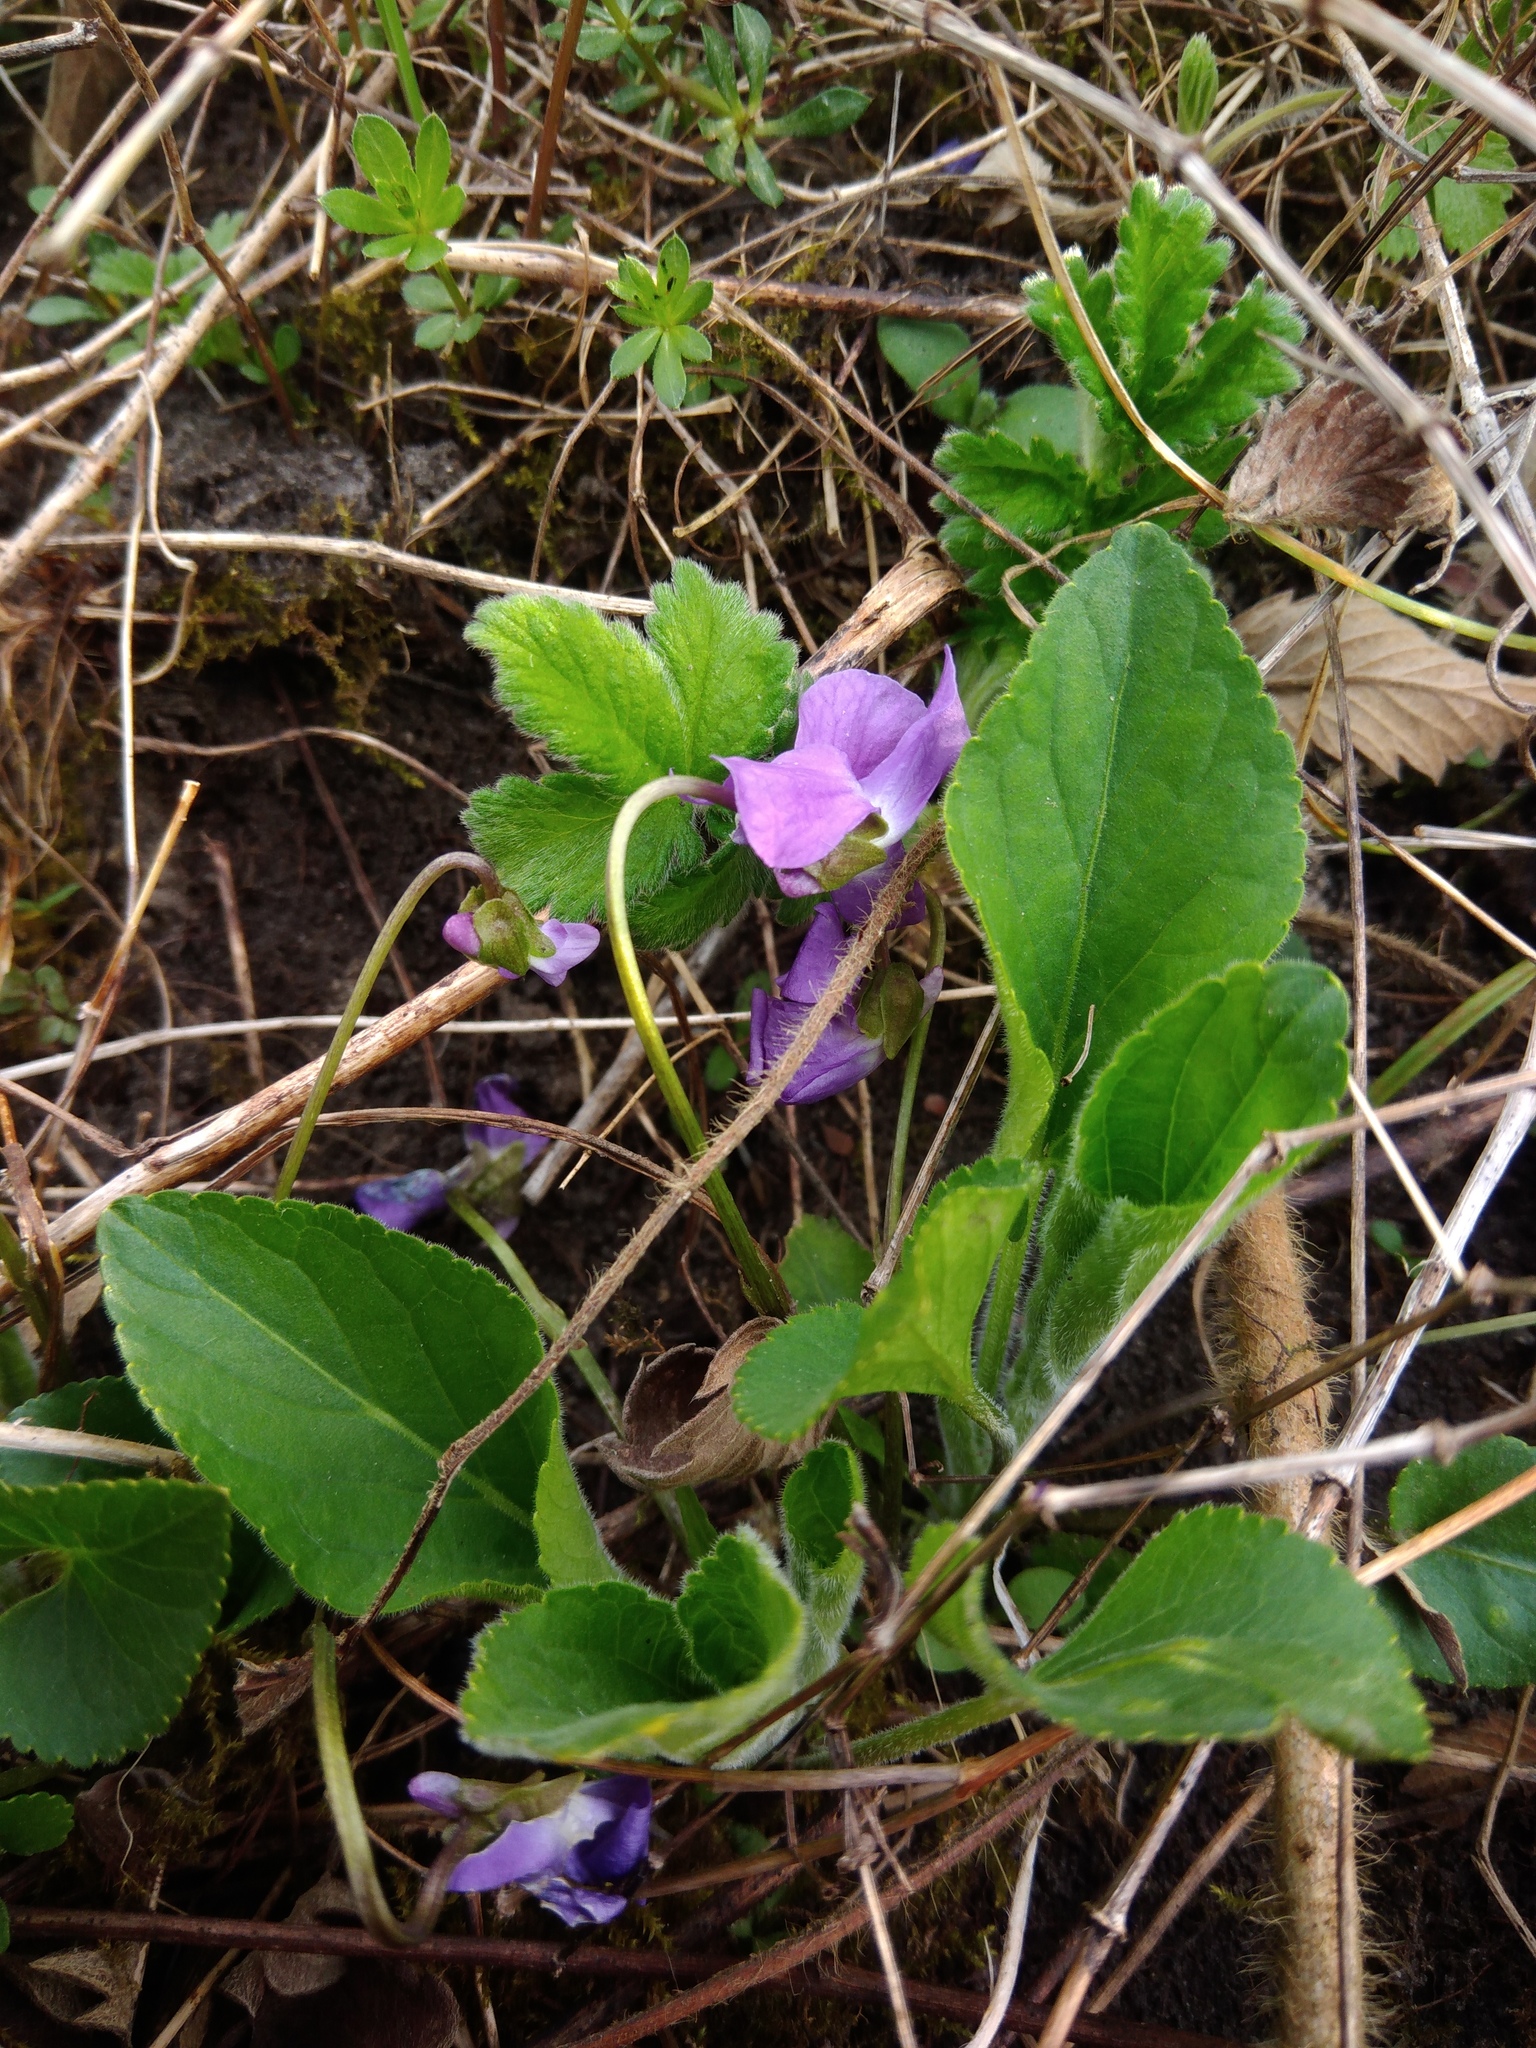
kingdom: Plantae
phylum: Tracheophyta
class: Magnoliopsida
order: Malpighiales
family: Violaceae
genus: Viola
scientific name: Viola hirta
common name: Hairy violet
